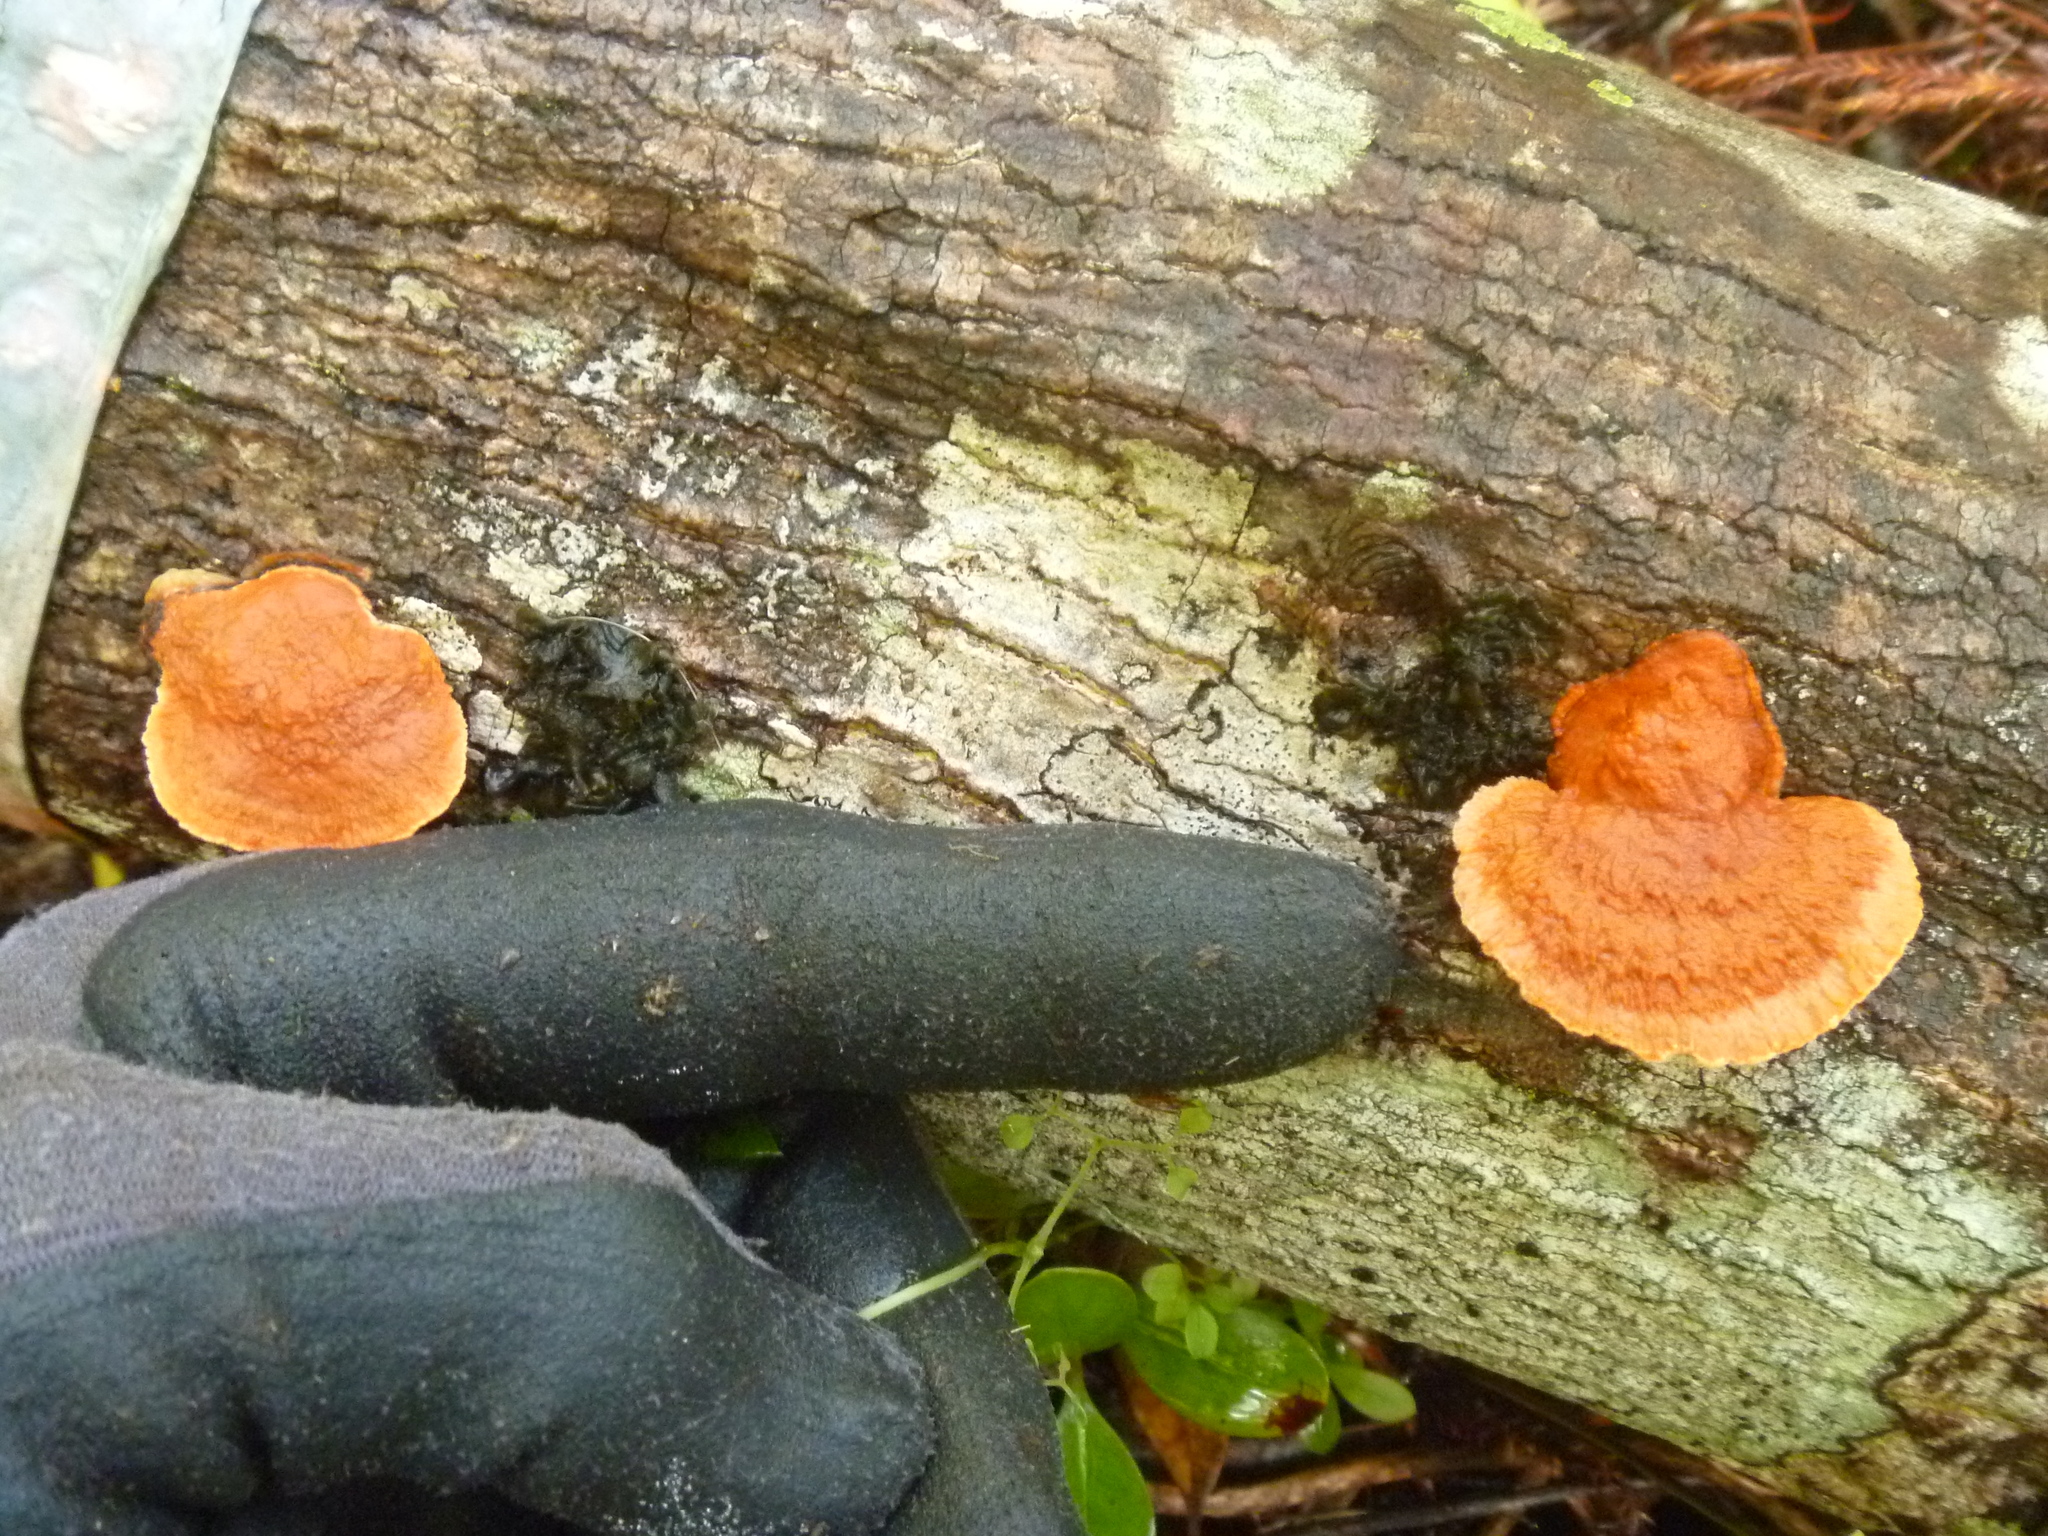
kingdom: Fungi
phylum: Basidiomycota
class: Agaricomycetes
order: Polyporales
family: Polyporaceae
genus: Trametes
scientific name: Trametes coccinea
